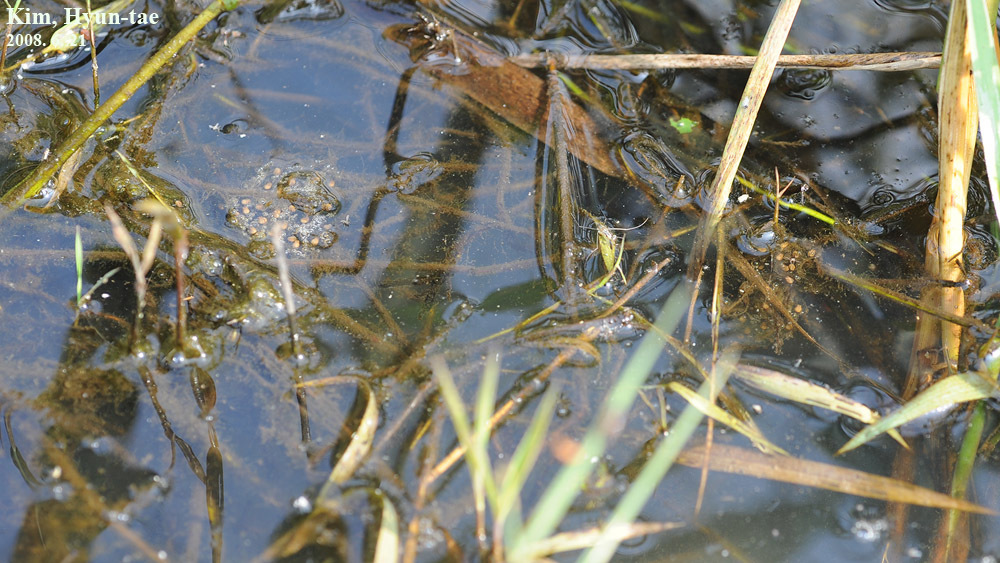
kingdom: Animalia
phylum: Chordata
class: Amphibia
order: Anura
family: Ranidae
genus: Pelophylax
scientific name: Pelophylax chosenicus
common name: Gold-spotted pond frog
